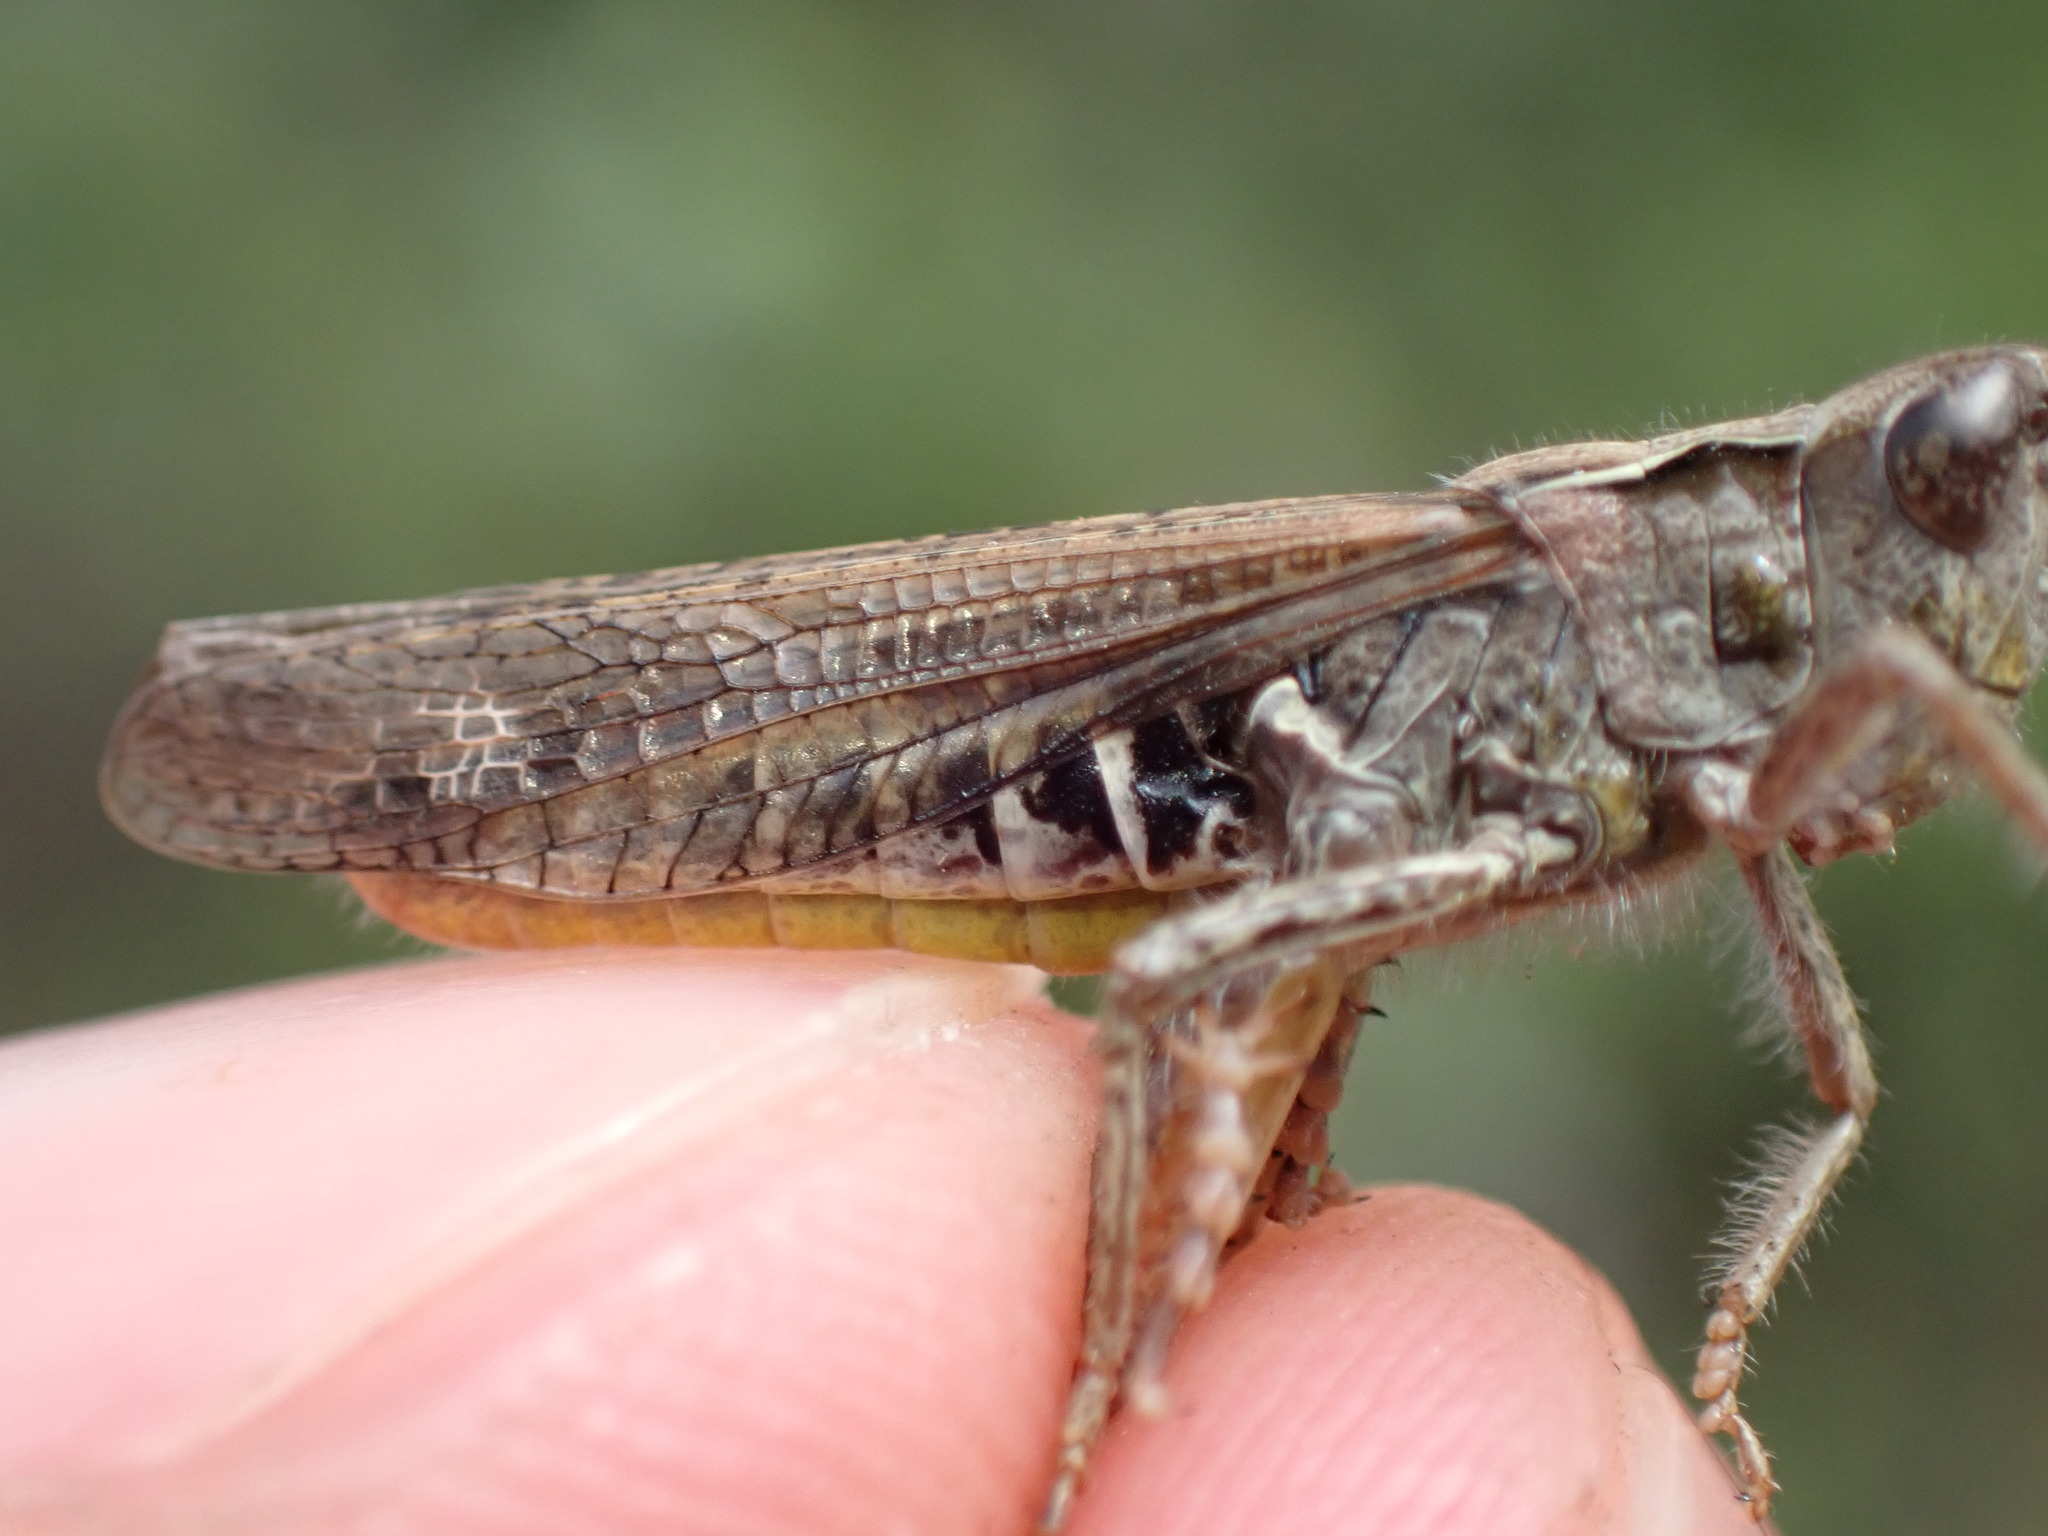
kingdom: Animalia
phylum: Arthropoda
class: Insecta
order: Orthoptera
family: Acrididae
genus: Chorthippus
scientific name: Chorthippus biguttulus
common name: Bow-winged grasshopper
